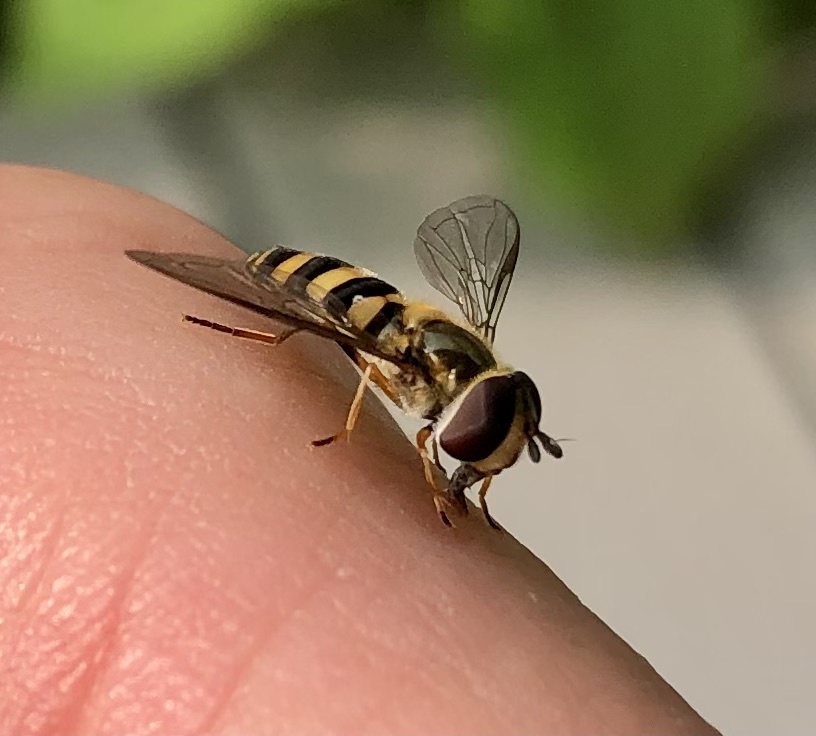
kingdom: Animalia
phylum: Arthropoda
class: Insecta
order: Diptera
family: Syrphidae
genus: Eupeodes
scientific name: Eupeodes
